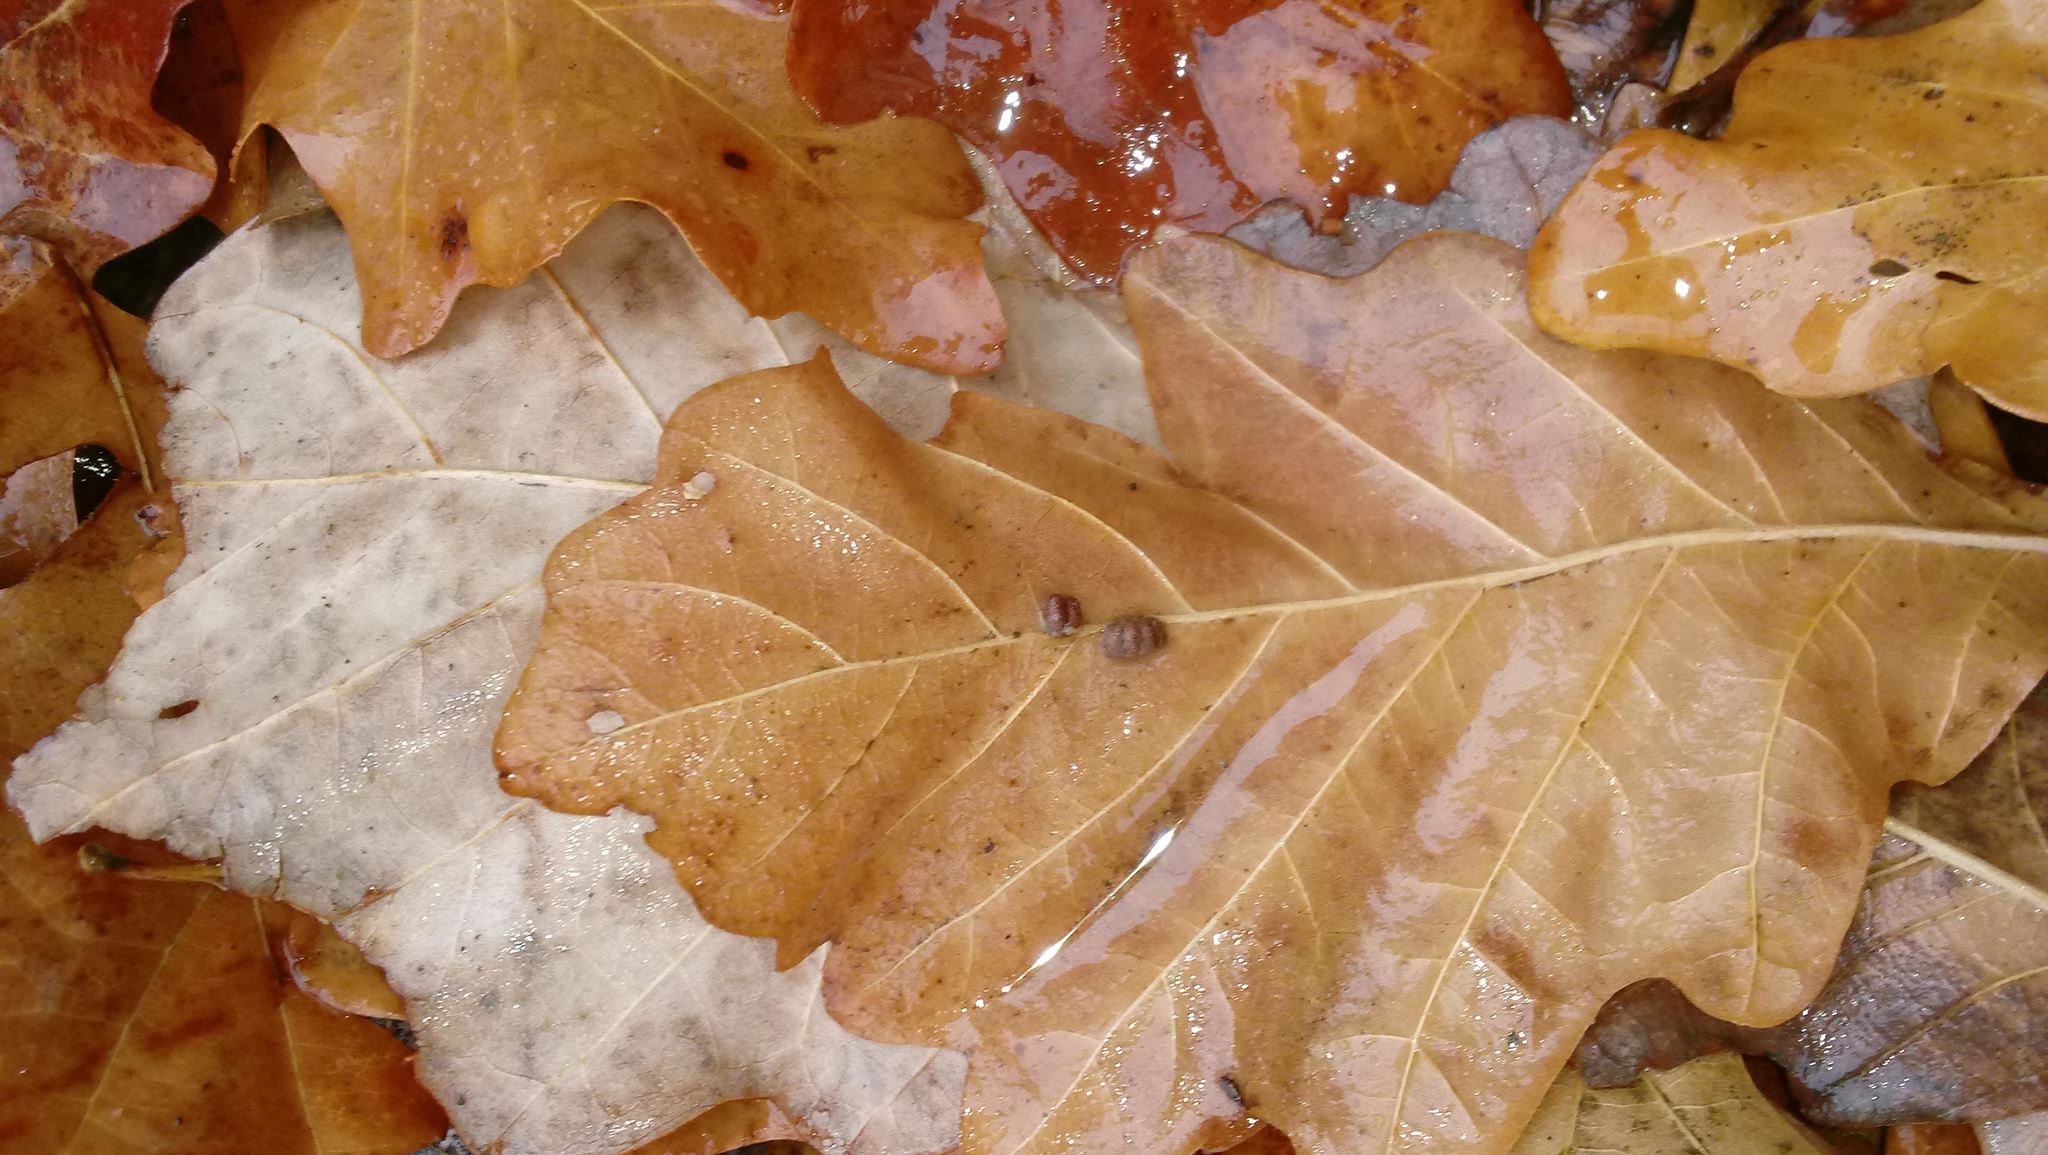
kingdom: Animalia
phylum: Arthropoda
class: Insecta
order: Hymenoptera
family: Cynipidae
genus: Andricus
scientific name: Andricus Druon ignotum
